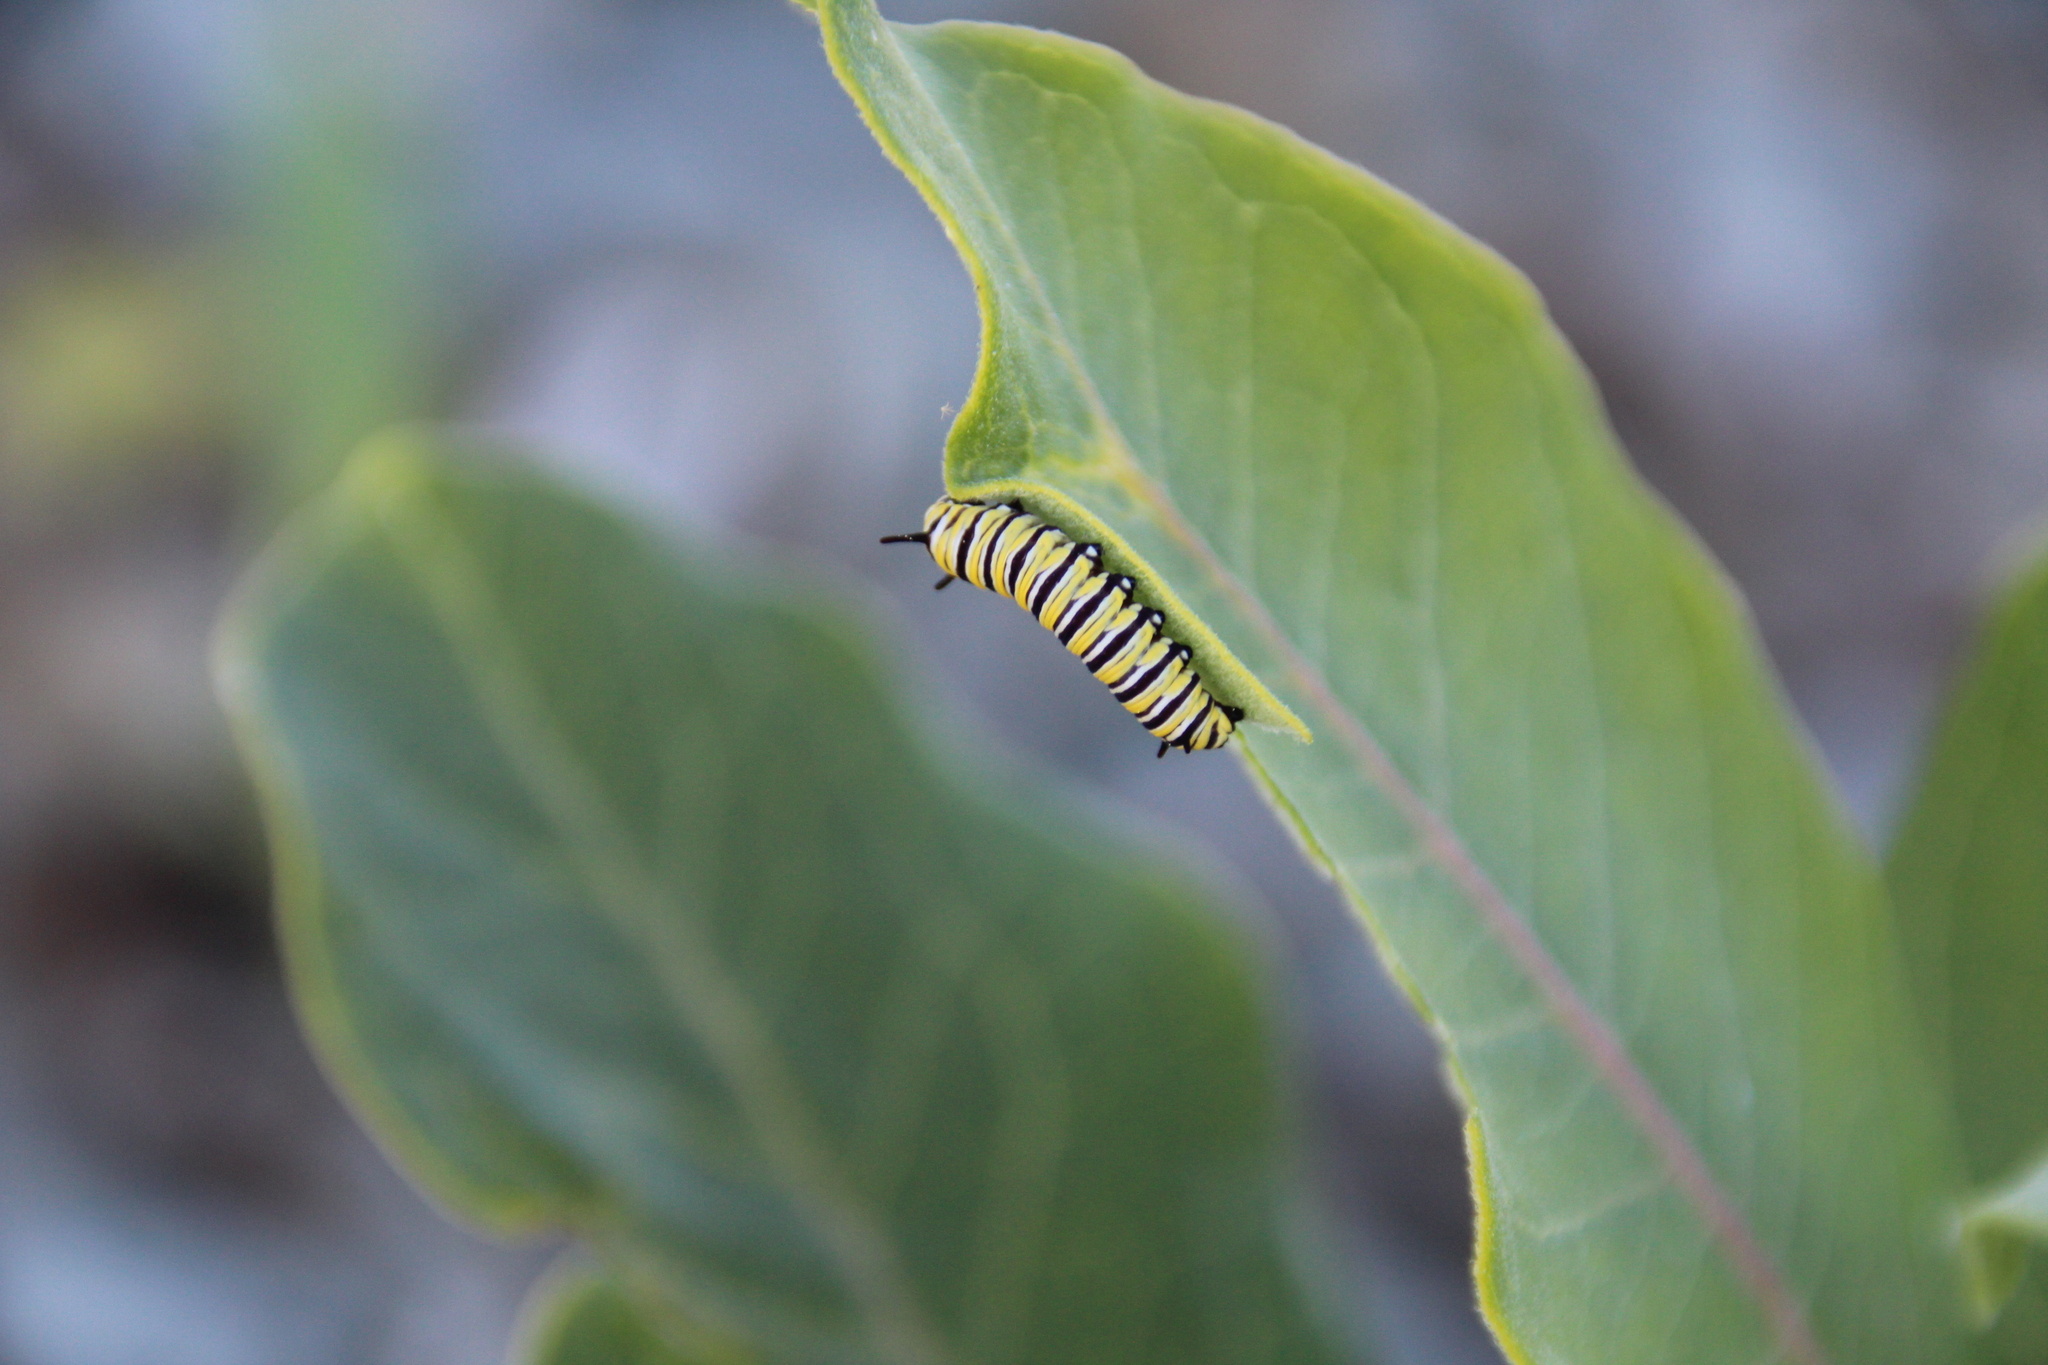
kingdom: Animalia
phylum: Arthropoda
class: Insecta
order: Lepidoptera
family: Nymphalidae
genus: Danaus
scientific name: Danaus plexippus
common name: Monarch
